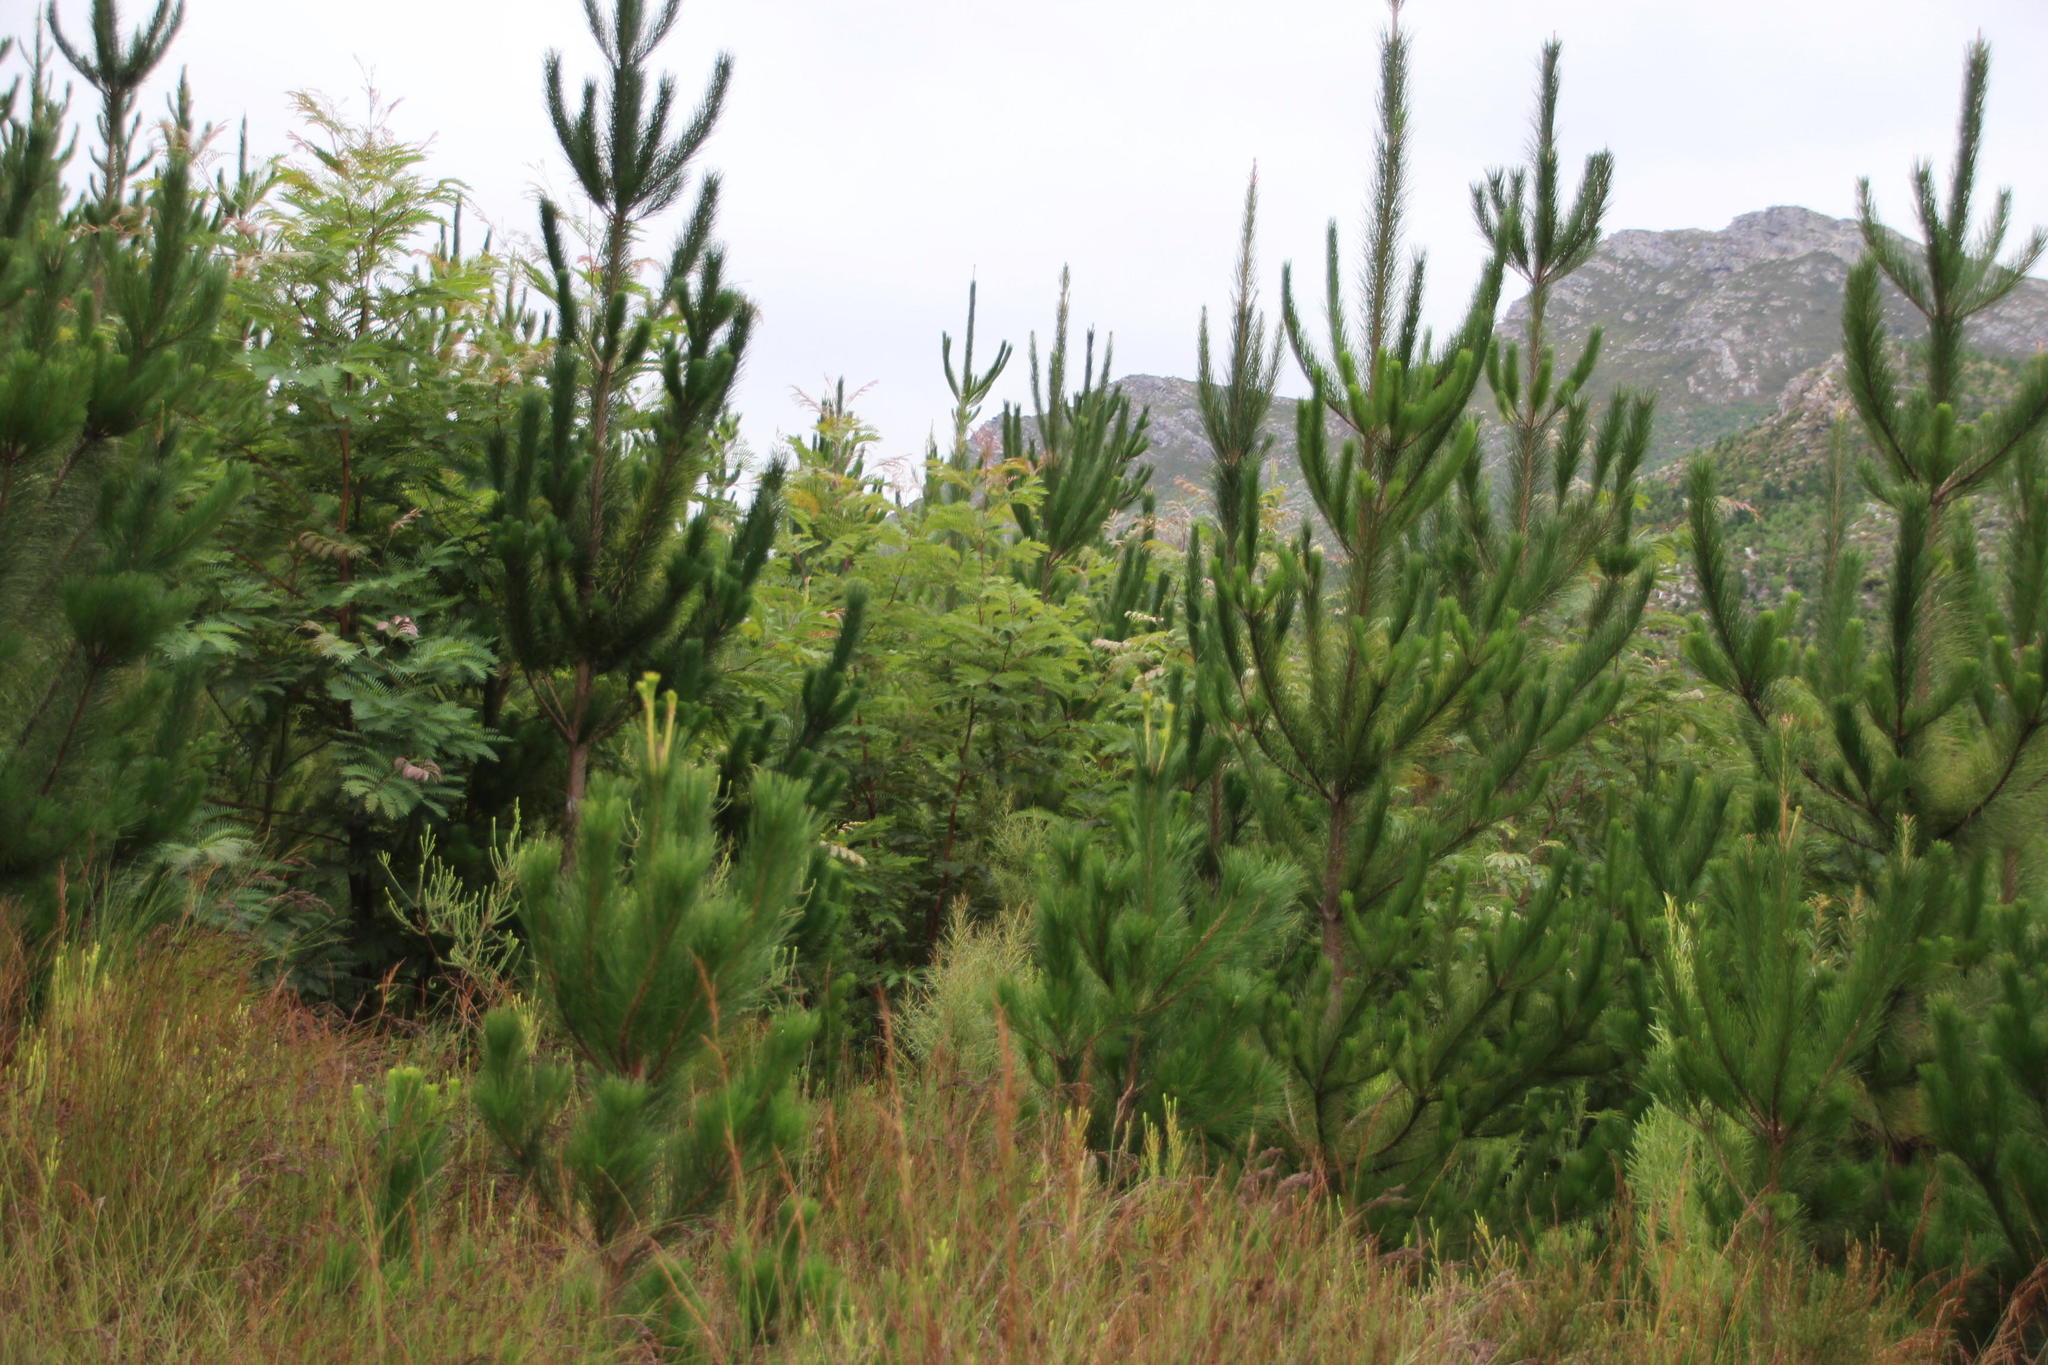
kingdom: Plantae
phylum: Tracheophyta
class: Pinopsida
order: Pinales
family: Pinaceae
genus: Pinus
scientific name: Pinus radiata
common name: Monterey pine
